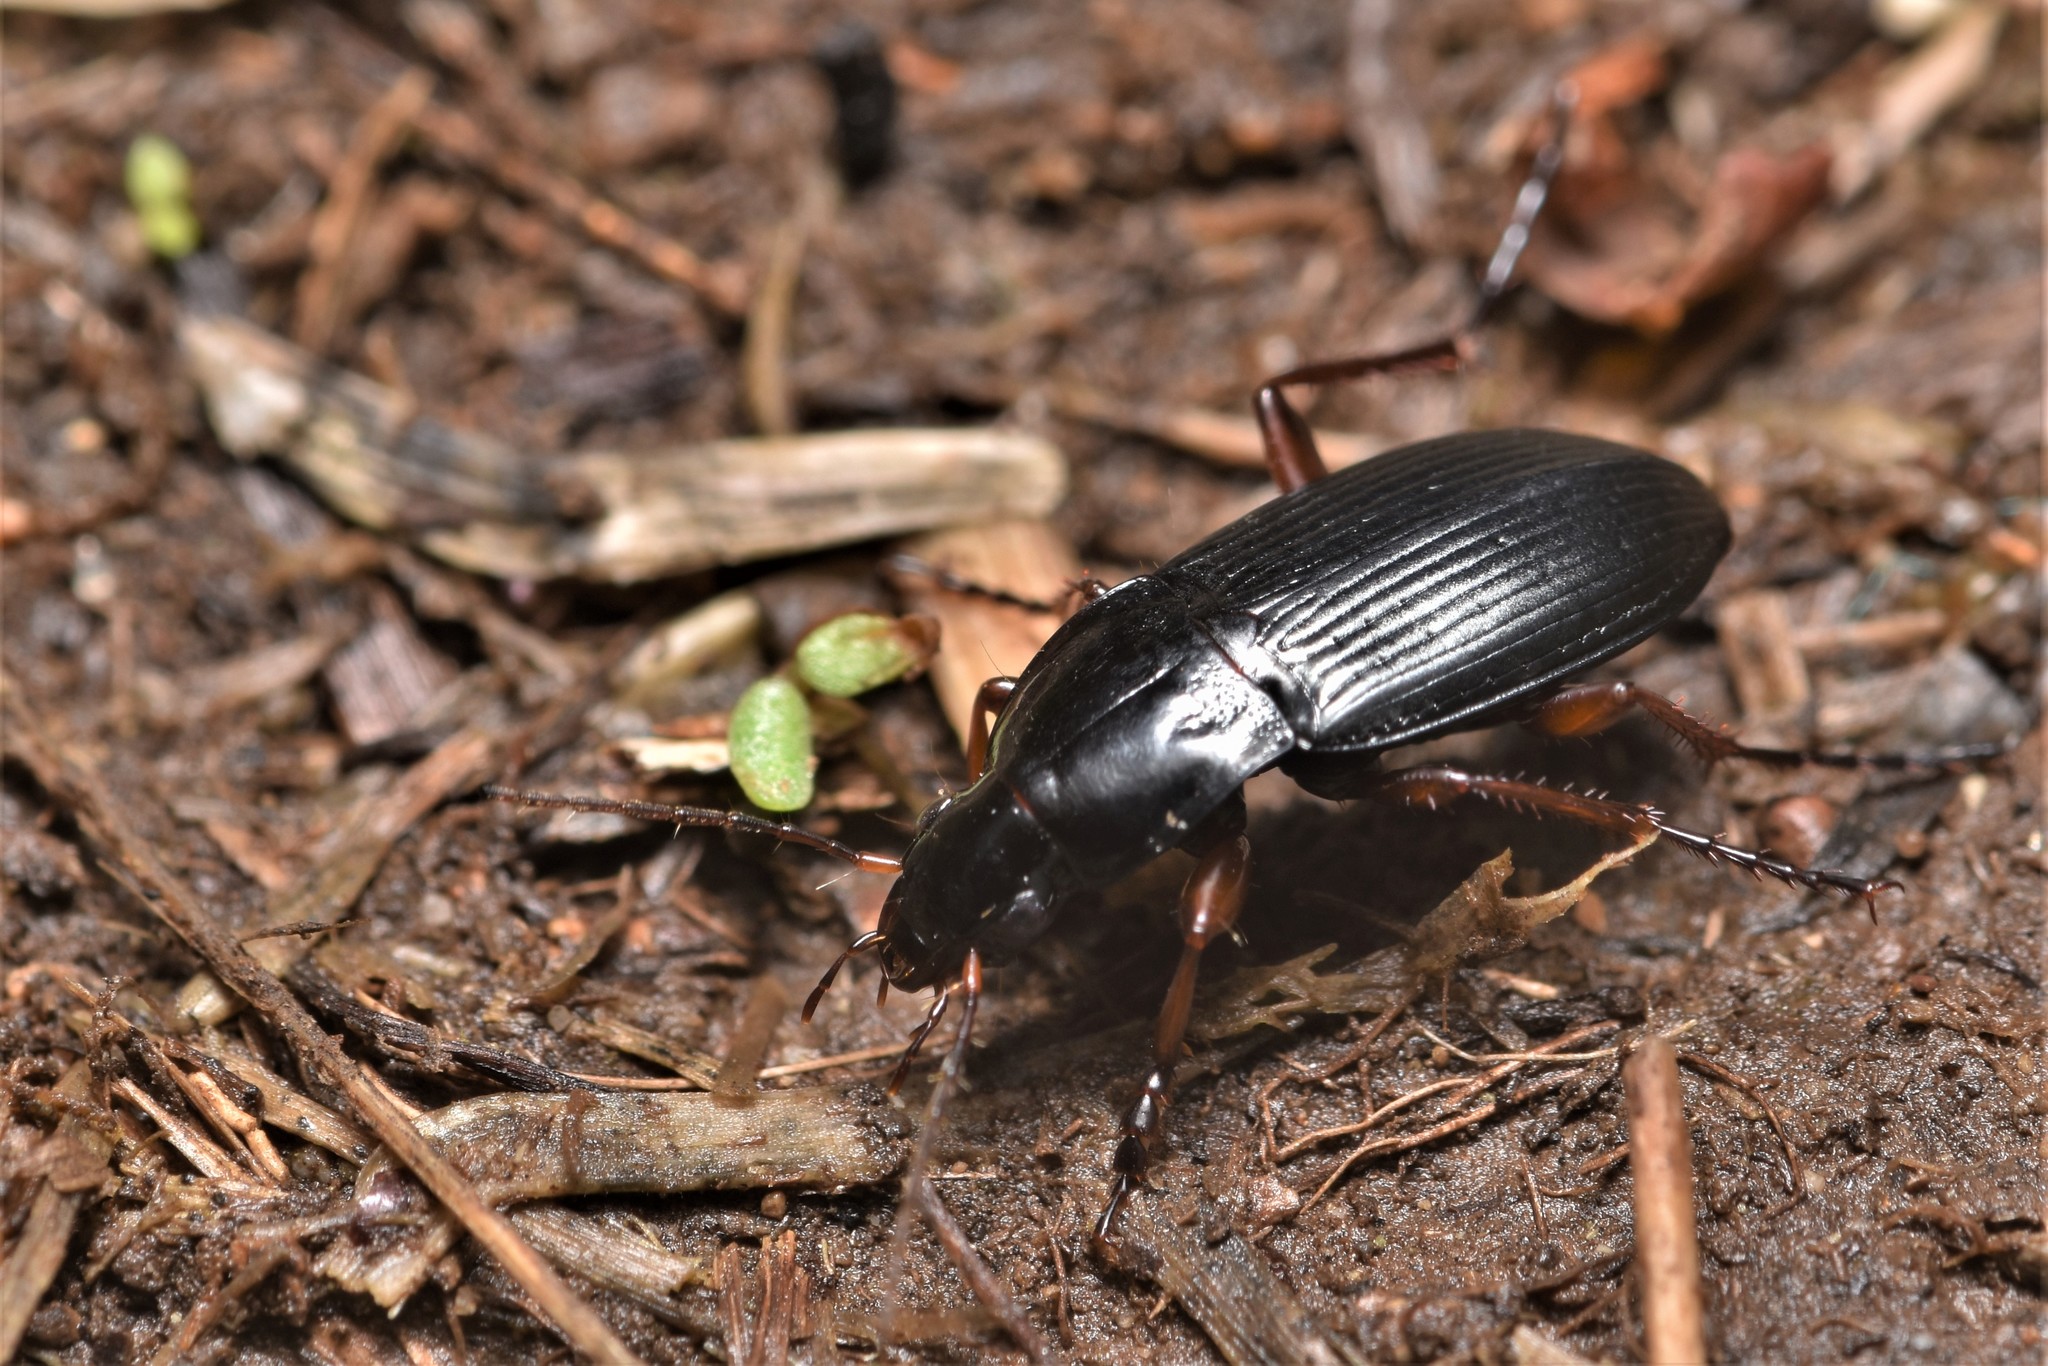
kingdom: Animalia
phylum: Arthropoda
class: Insecta
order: Coleoptera
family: Carabidae
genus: Calathus
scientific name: Calathus fuscipes
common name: Dark-footed harp ground beetle
